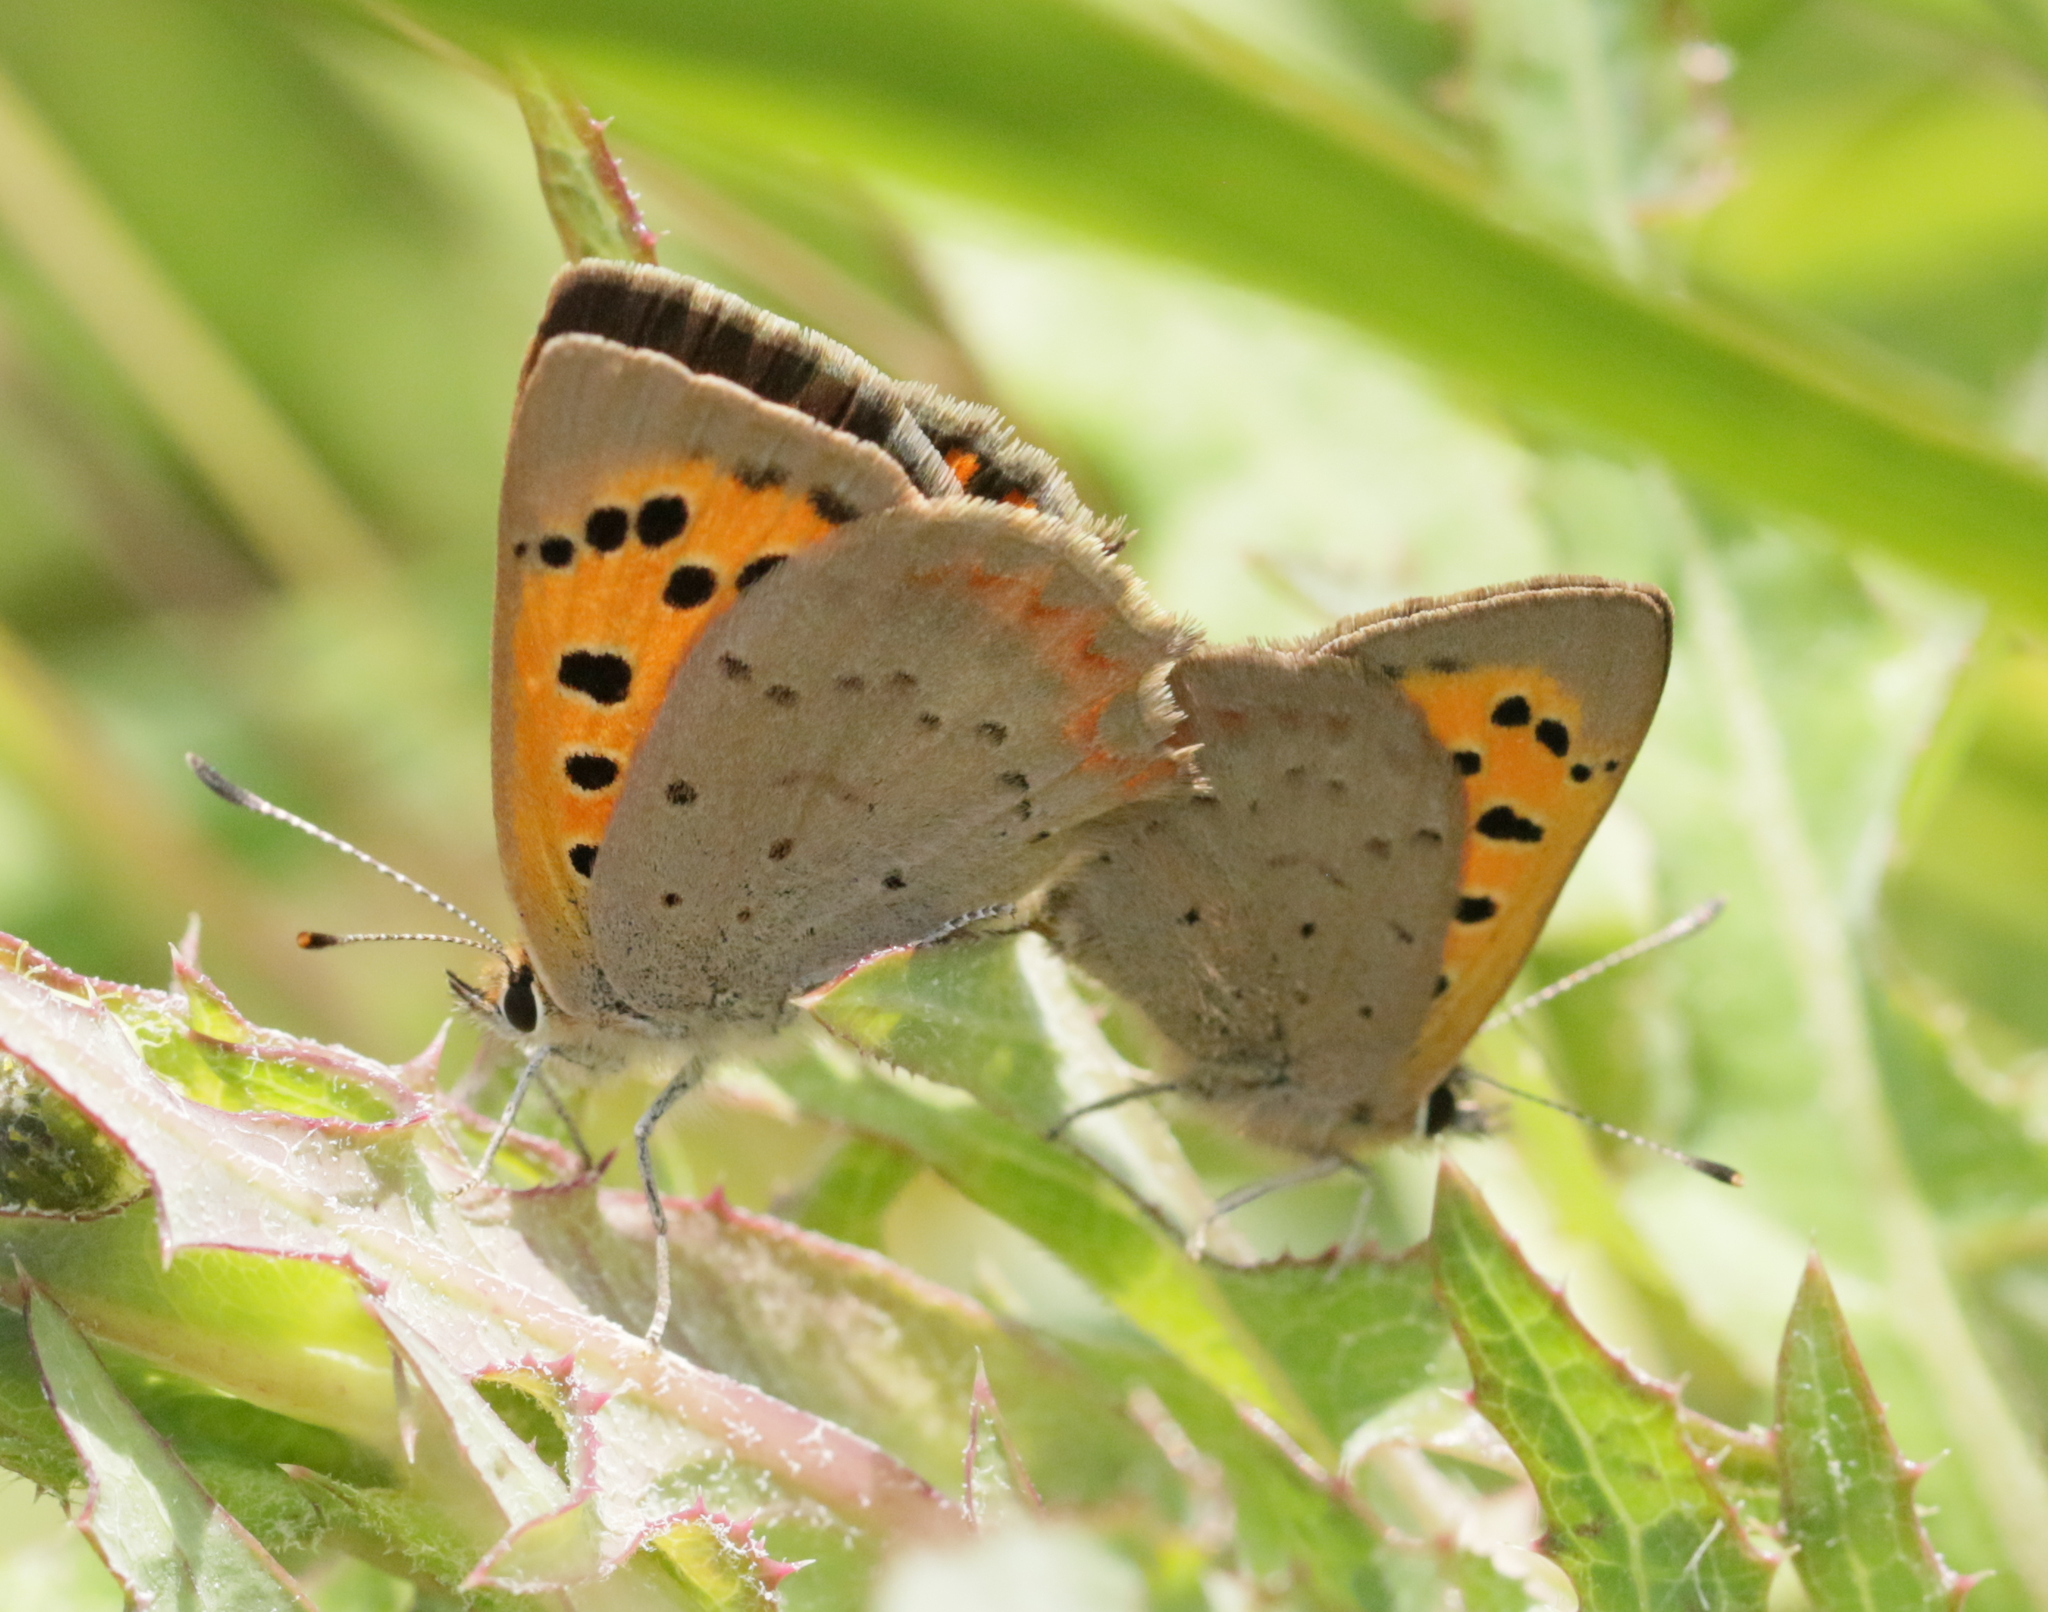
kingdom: Animalia
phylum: Arthropoda
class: Insecta
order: Lepidoptera
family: Lycaenidae
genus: Lycaena
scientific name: Lycaena phlaeas
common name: Small copper
